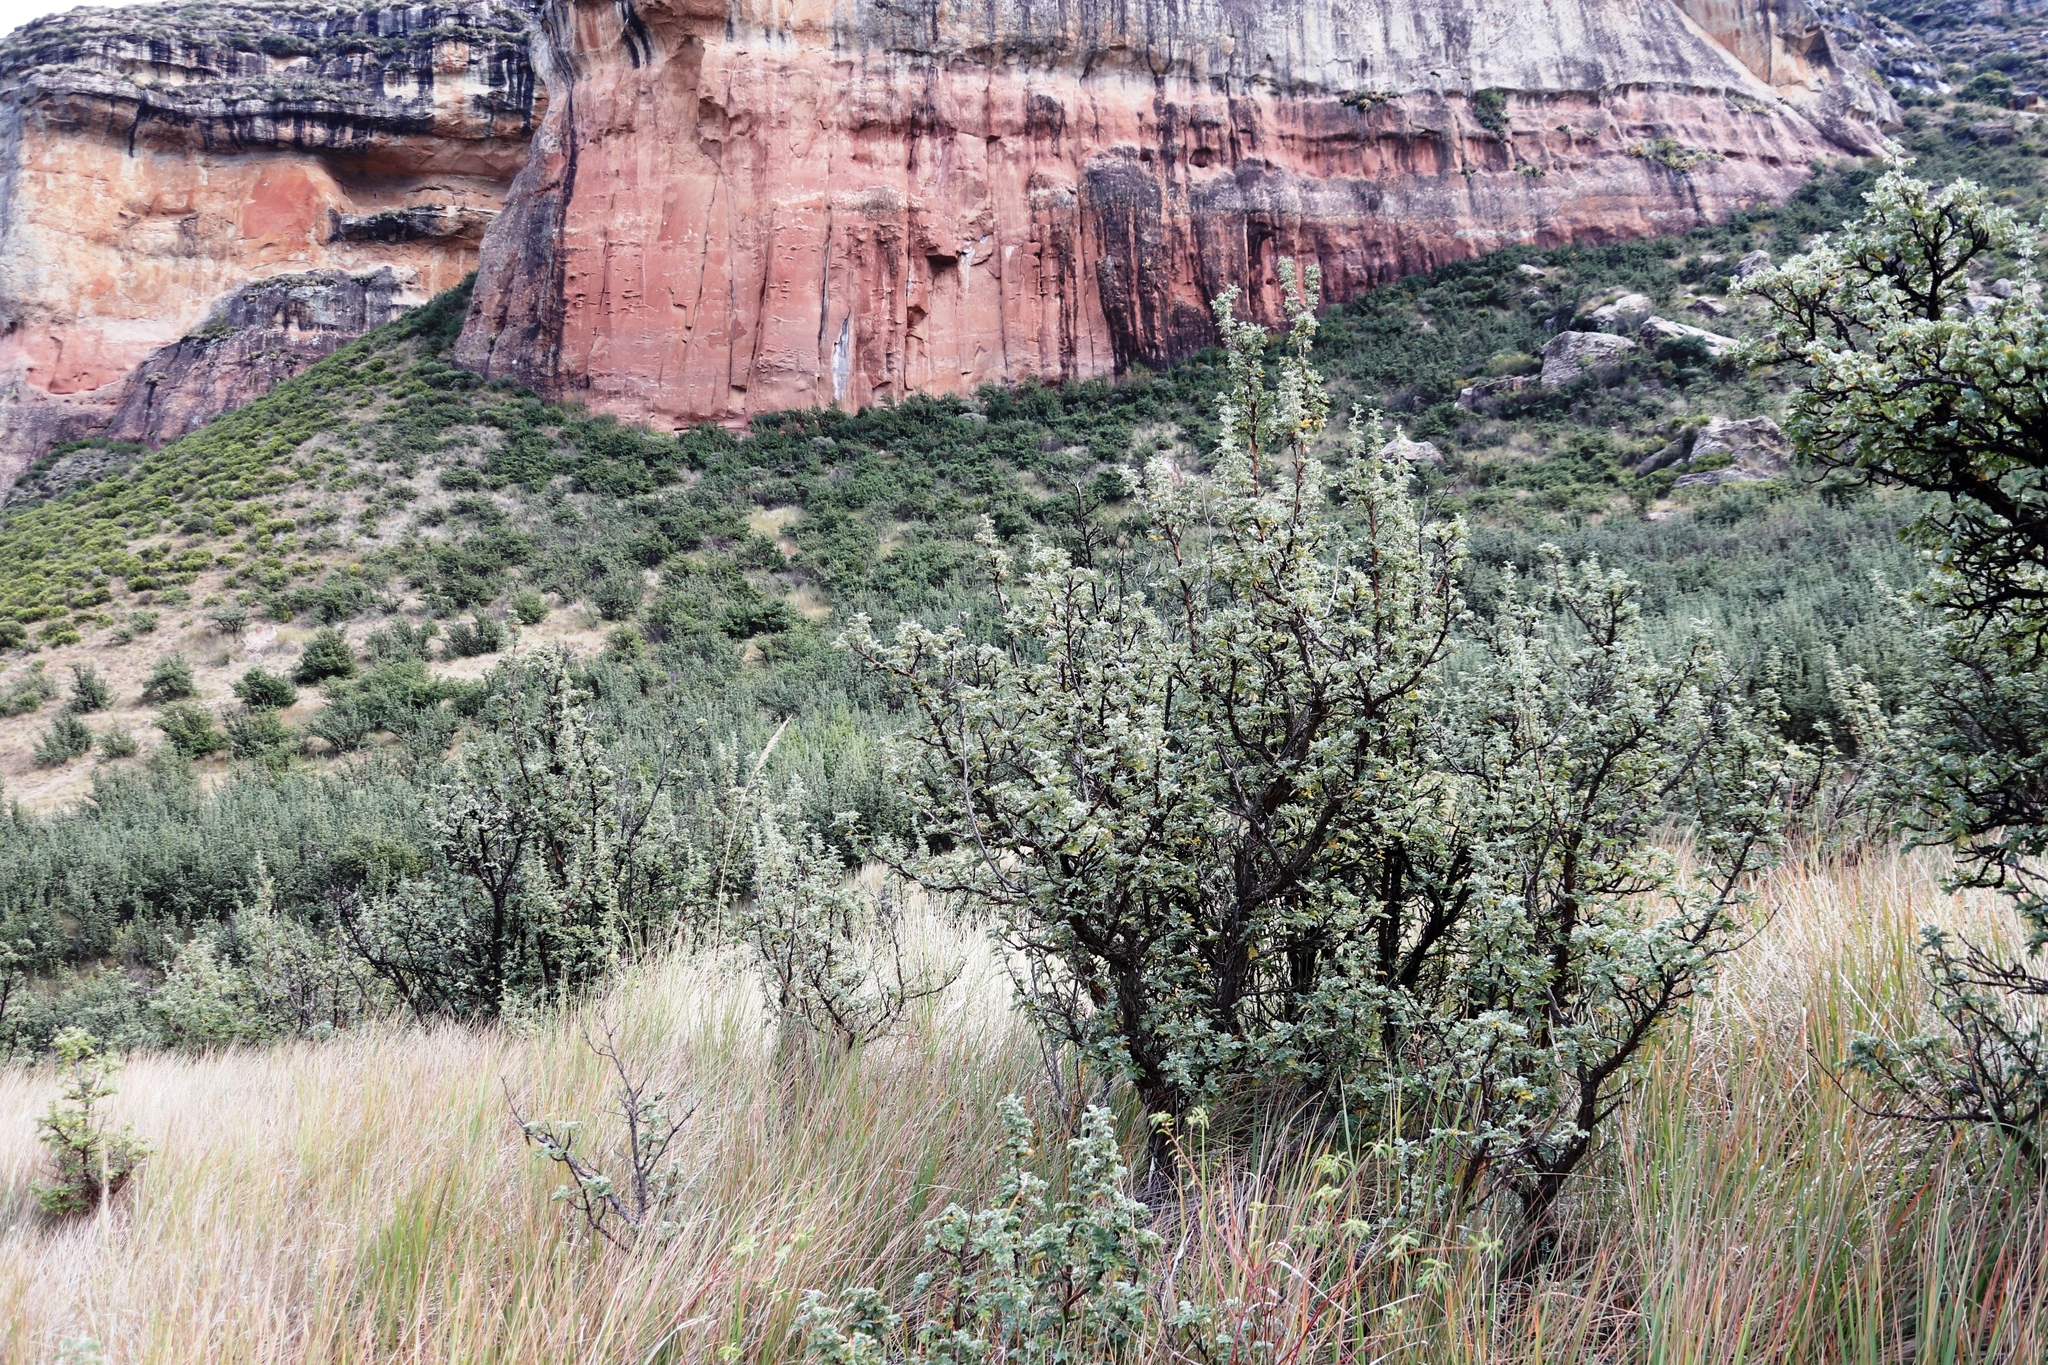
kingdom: Plantae
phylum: Tracheophyta
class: Magnoliopsida
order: Rosales
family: Rosaceae
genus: Leucosidea
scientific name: Leucosidea sericea
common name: Oldwood
